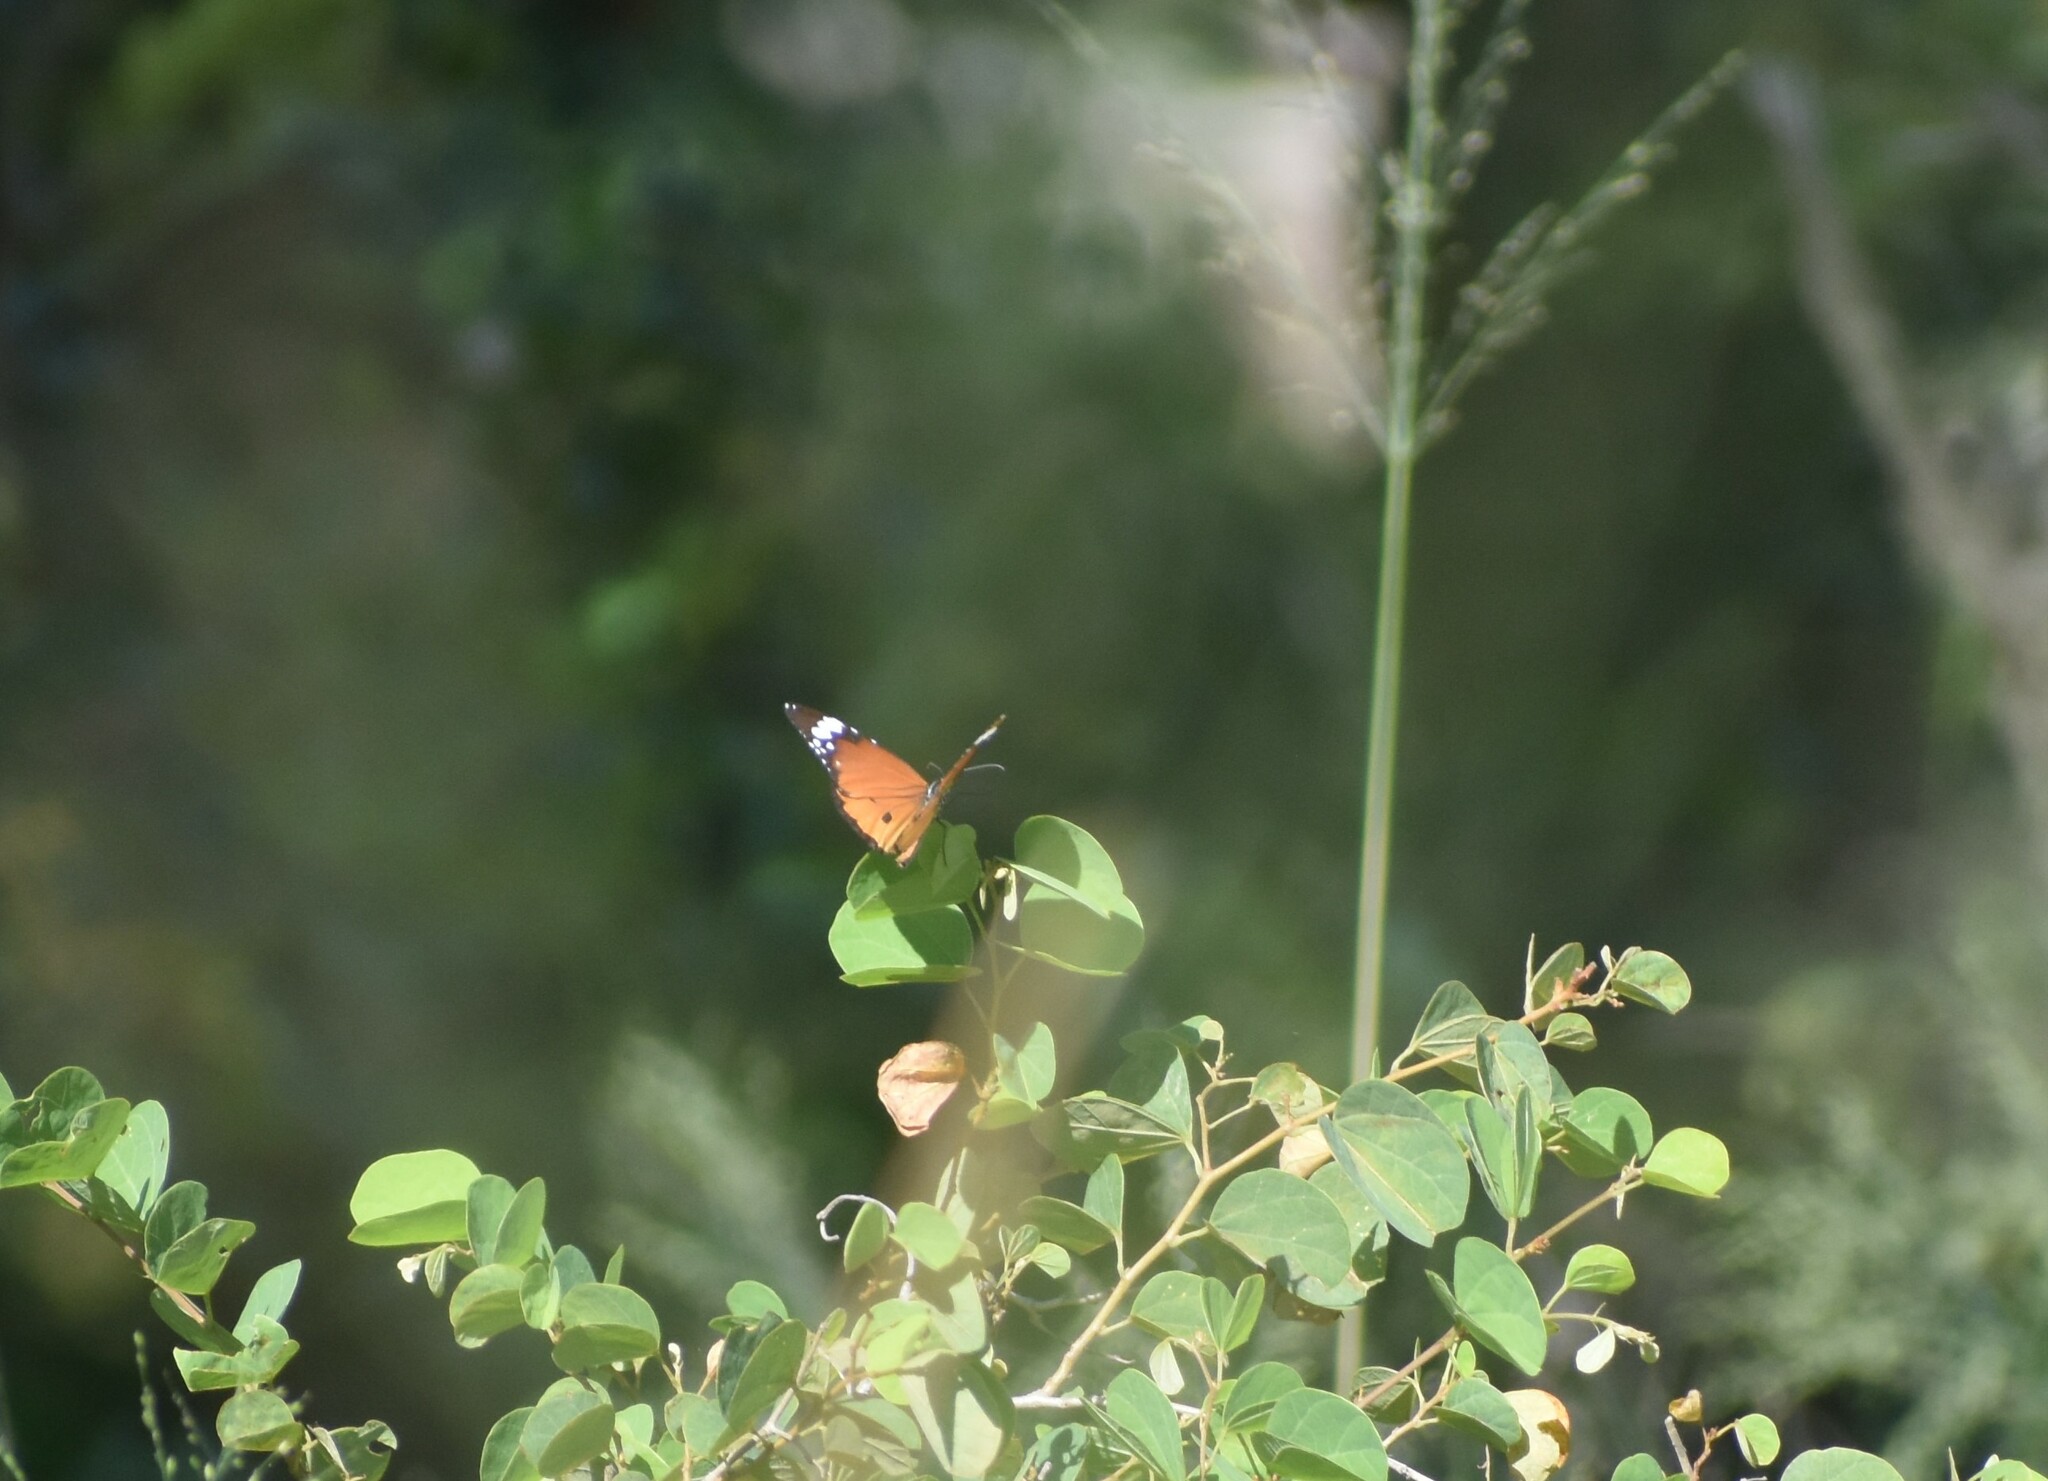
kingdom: Animalia
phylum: Arthropoda
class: Insecta
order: Lepidoptera
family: Nymphalidae
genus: Danaus
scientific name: Danaus chrysippus
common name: Plain tiger
